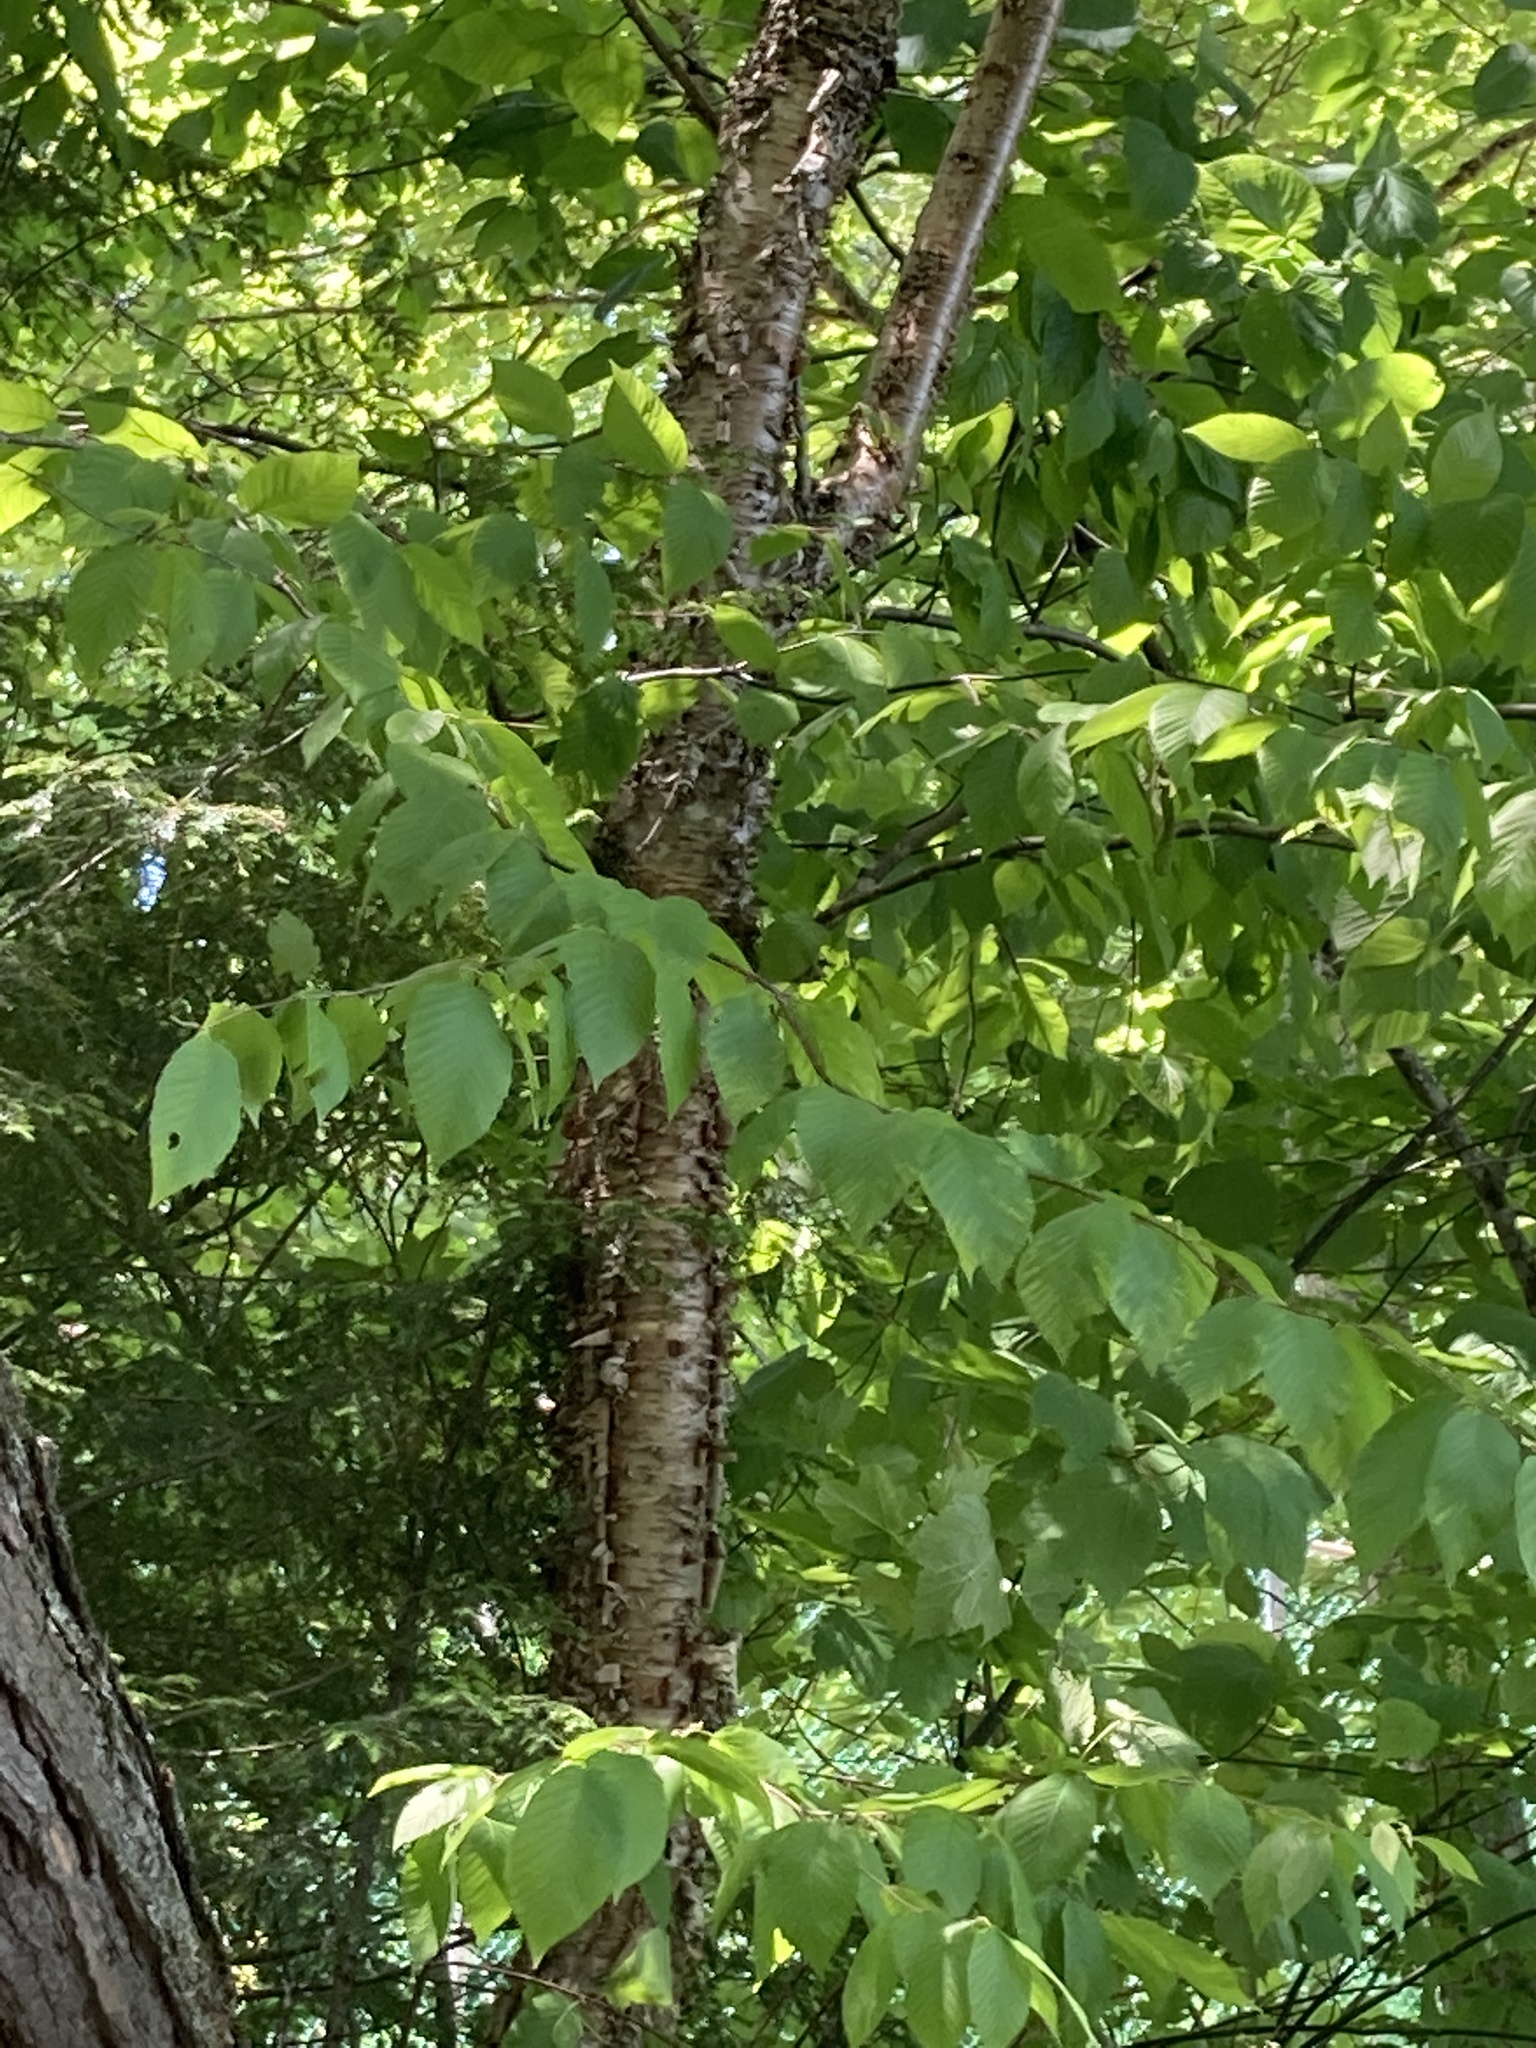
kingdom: Plantae
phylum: Tracheophyta
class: Magnoliopsida
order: Fagales
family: Betulaceae
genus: Betula
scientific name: Betula alleghaniensis
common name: Yellow birch
